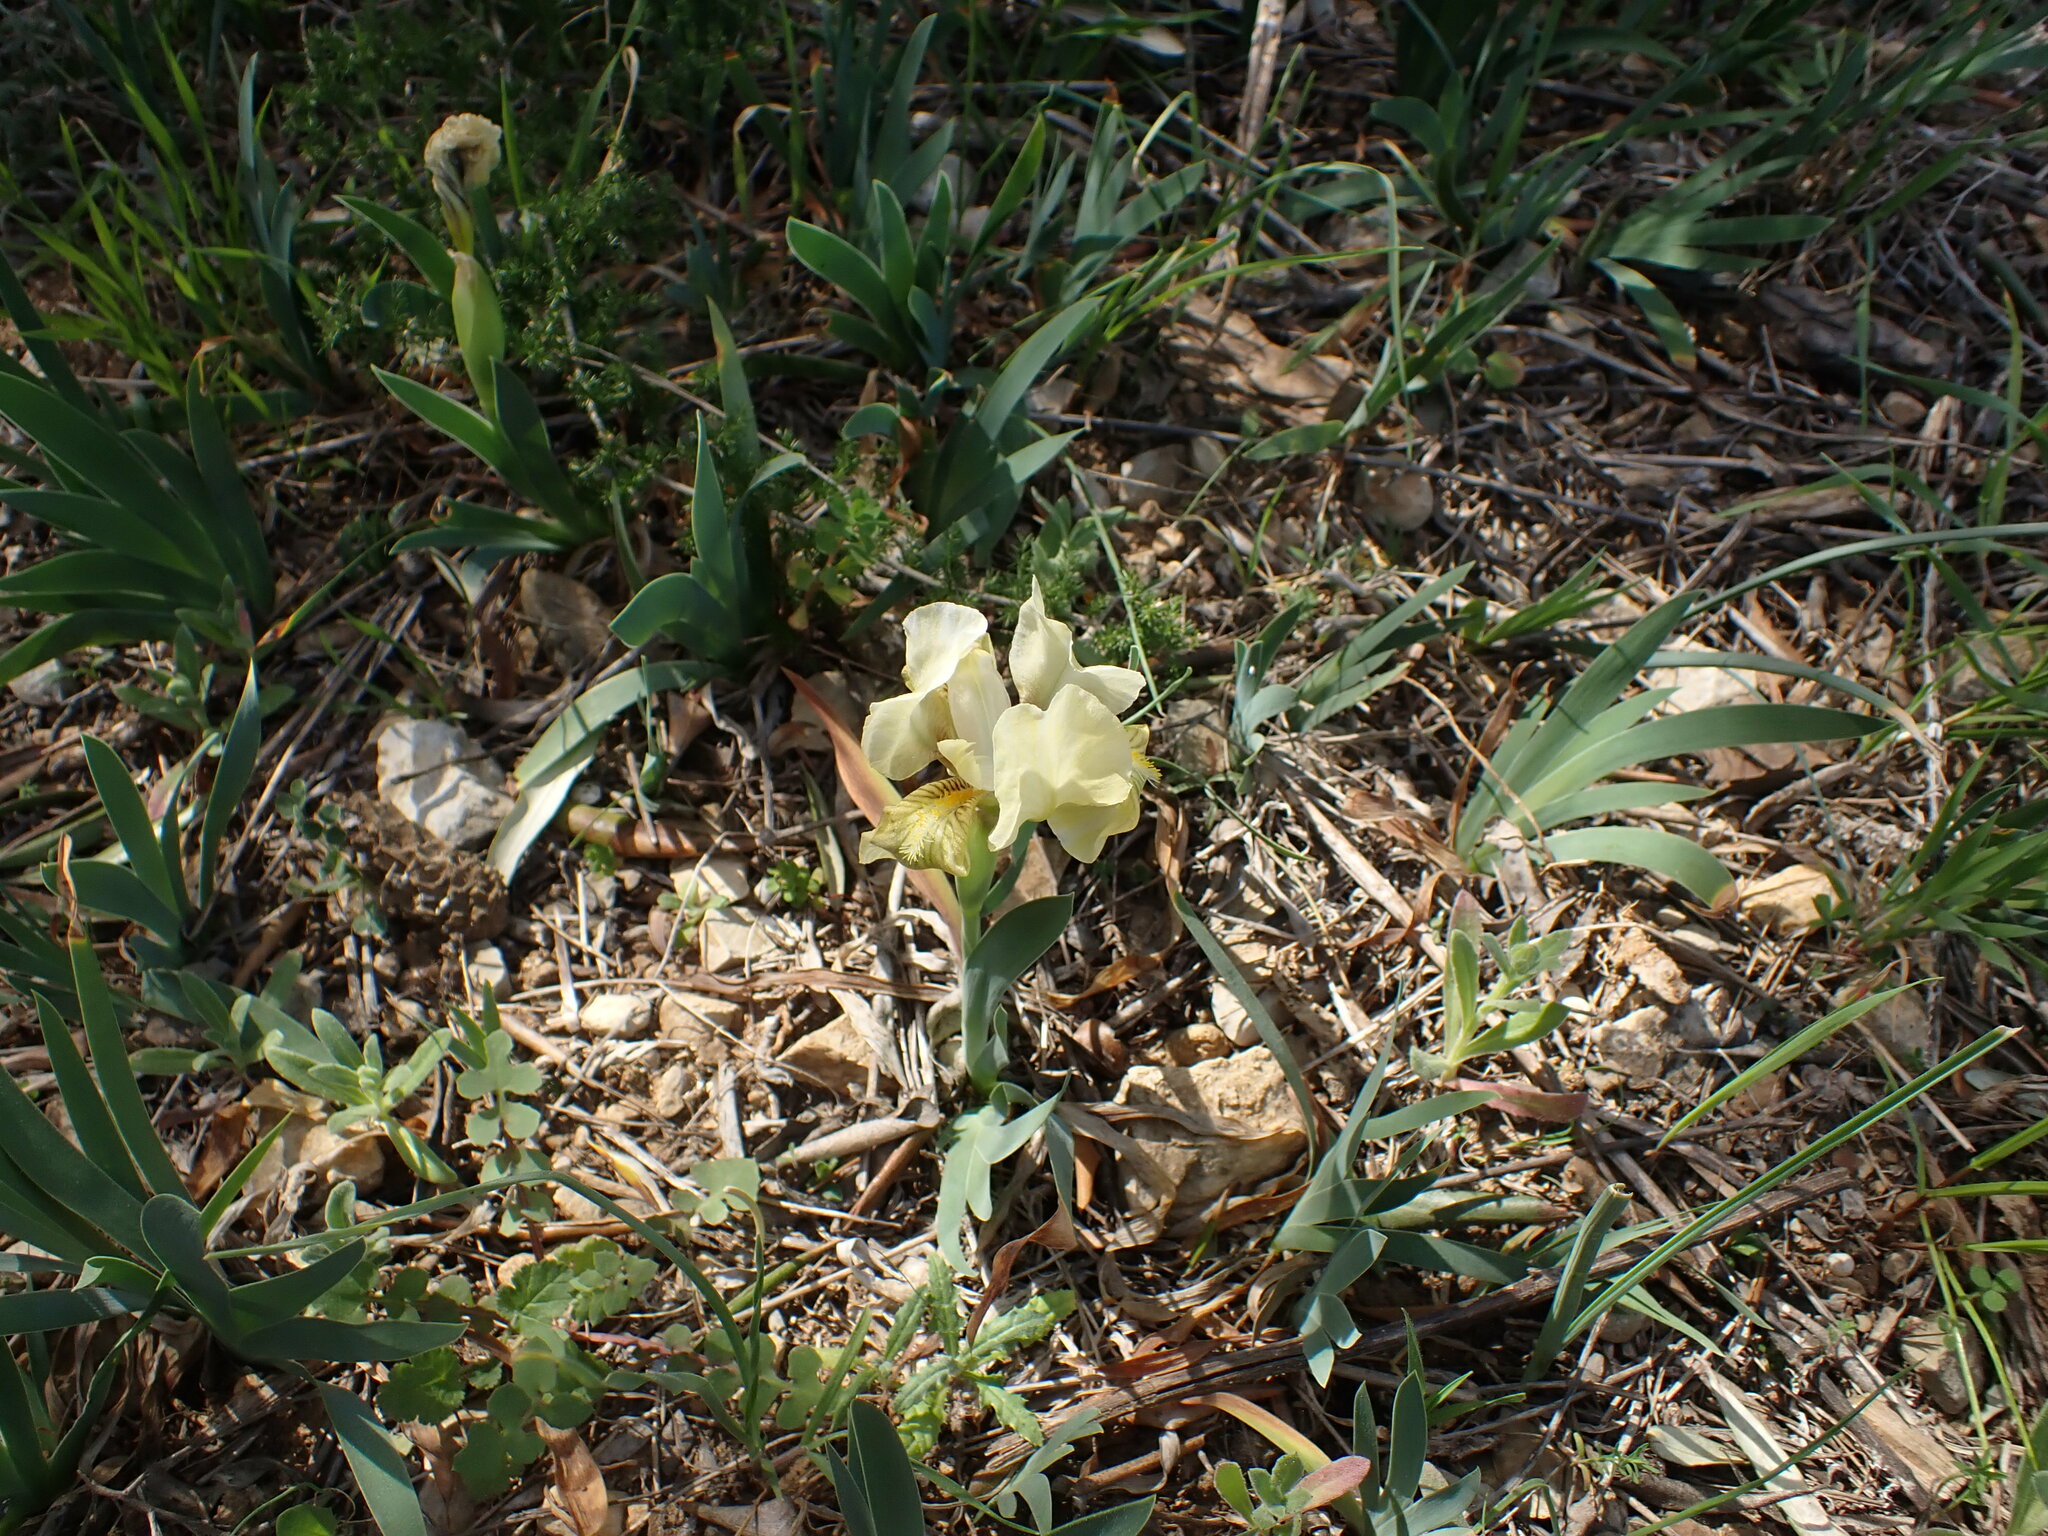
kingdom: Plantae
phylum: Tracheophyta
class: Liliopsida
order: Asparagales
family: Iridaceae
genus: Iris
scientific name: Iris lutescens
